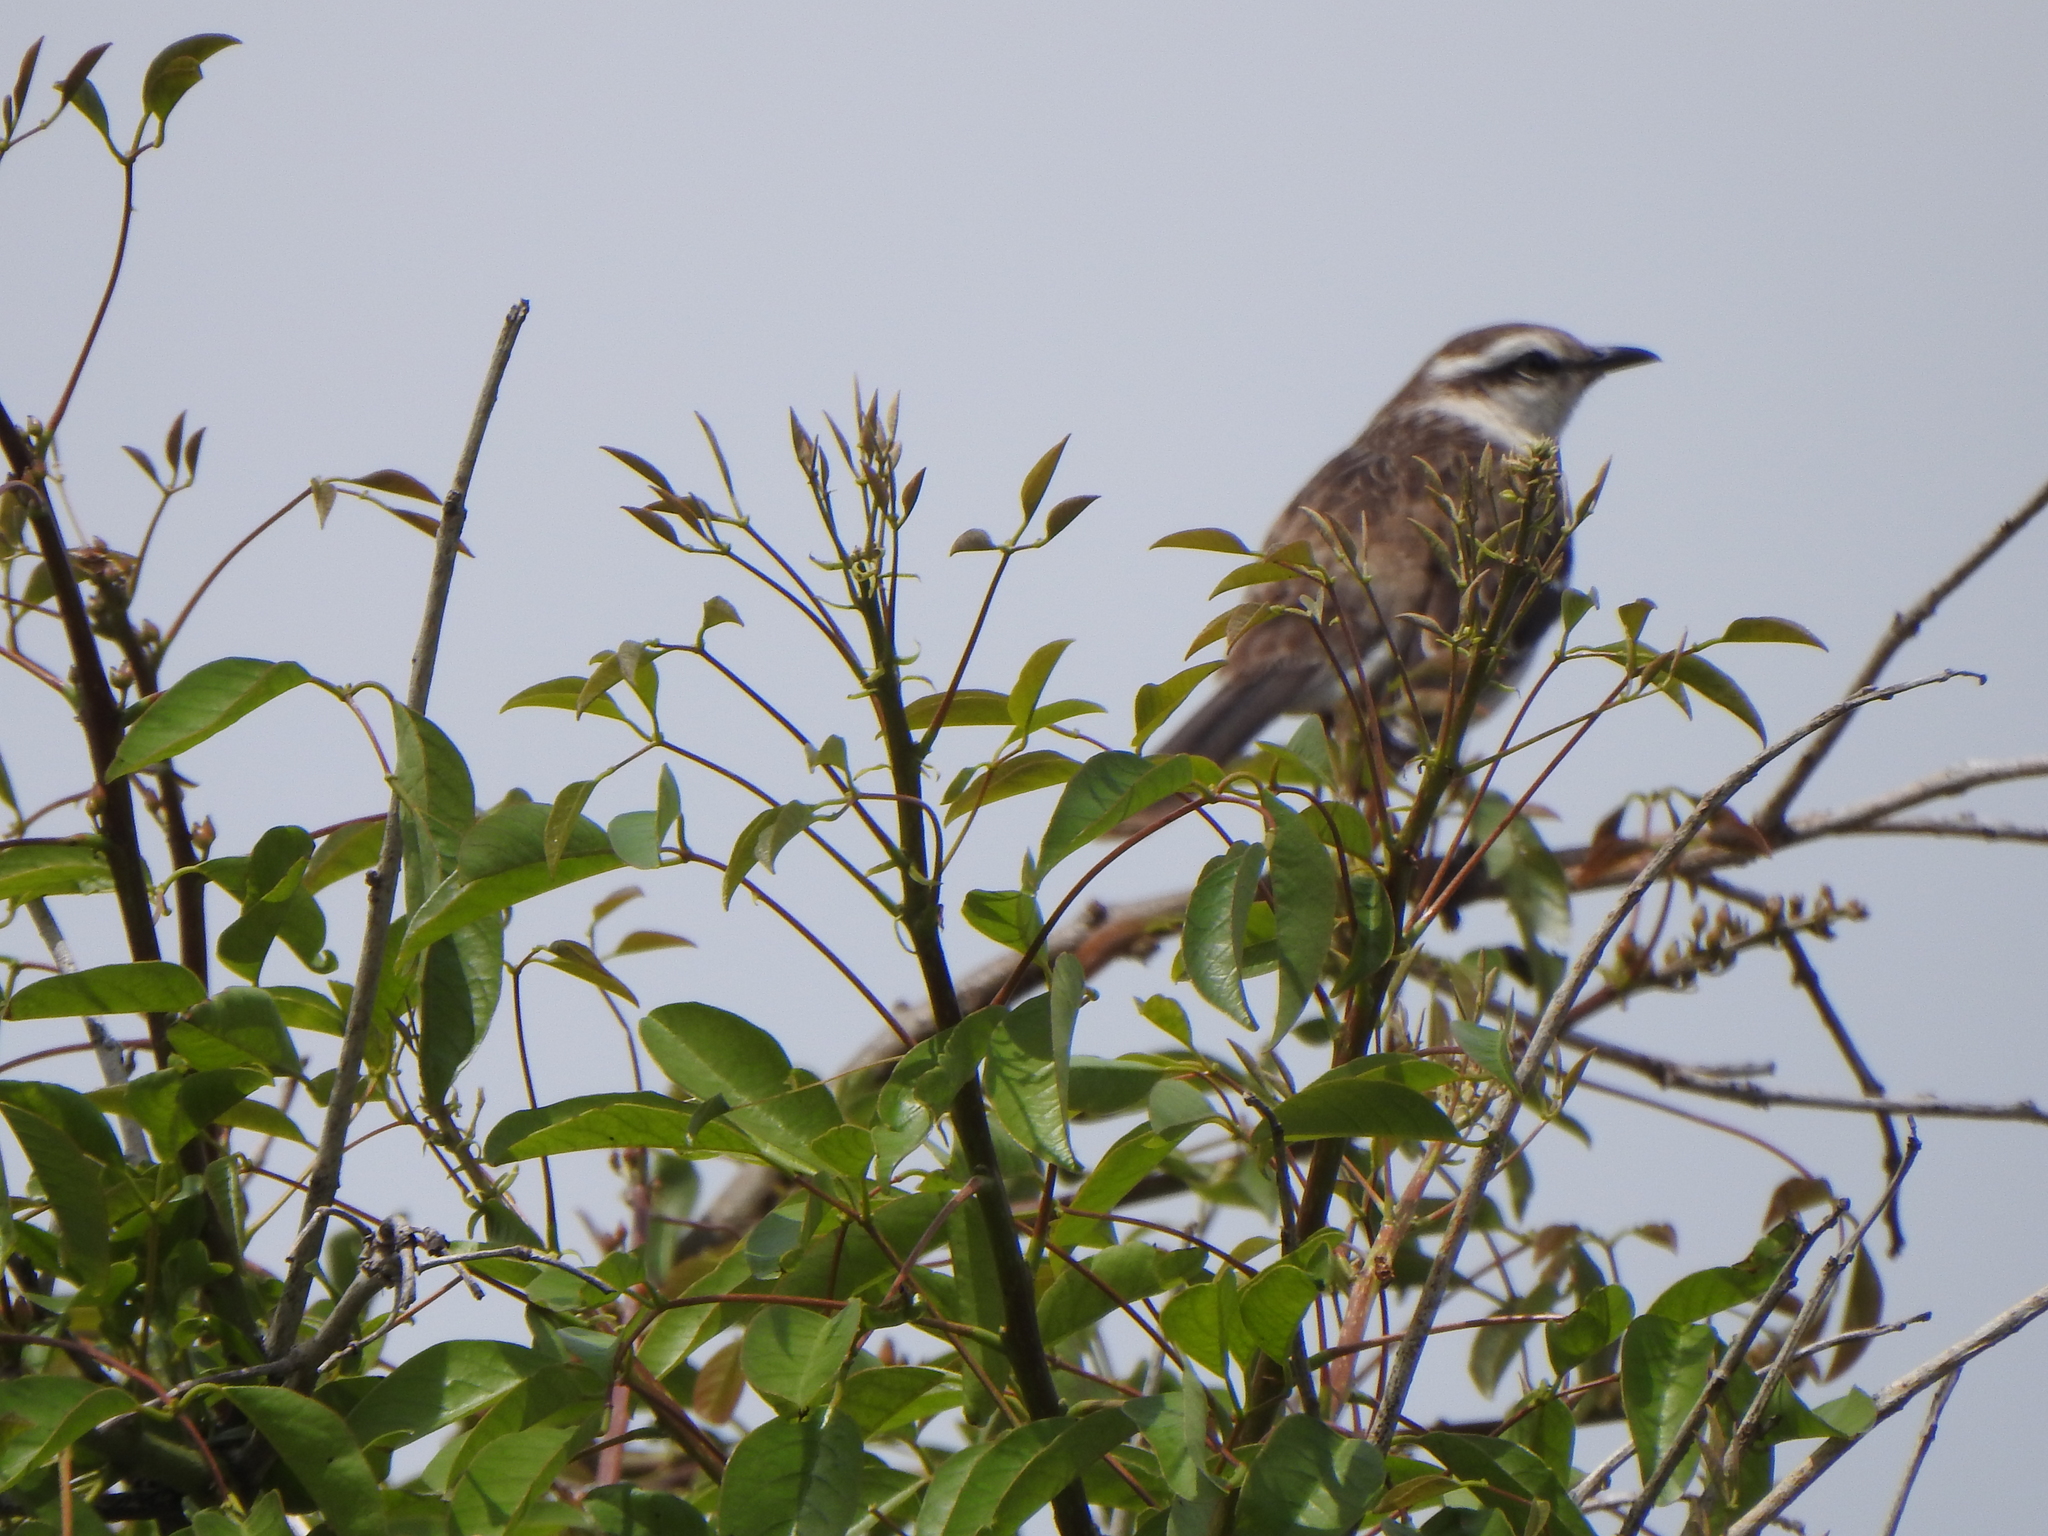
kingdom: Animalia
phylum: Chordata
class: Aves
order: Passeriformes
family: Mimidae
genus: Mimus
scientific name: Mimus saturninus
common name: Chalk-browed mockingbird
